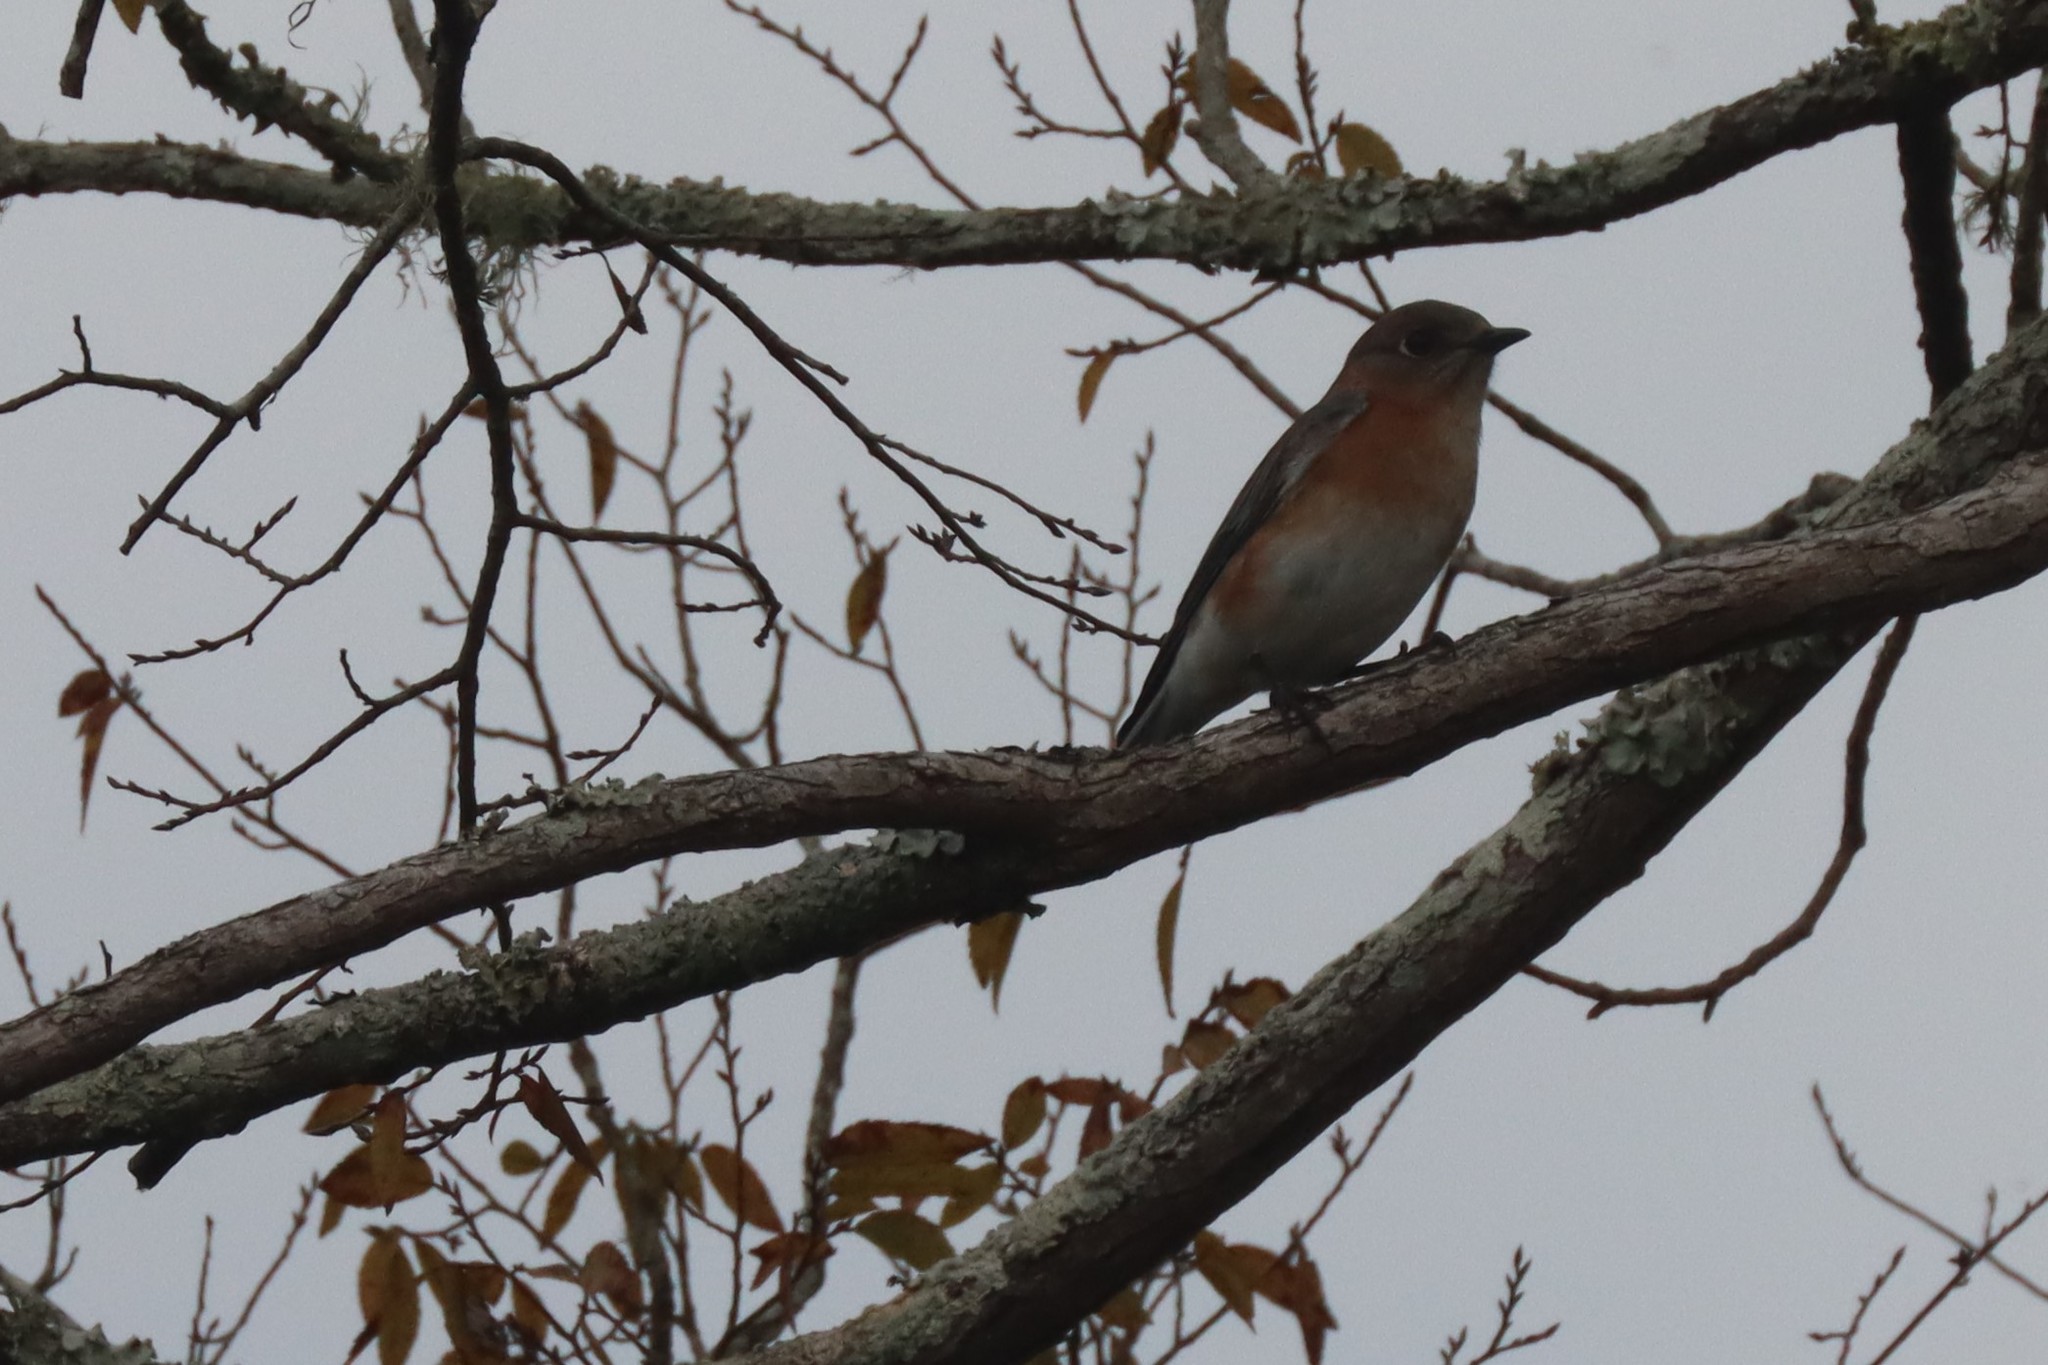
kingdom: Animalia
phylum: Chordata
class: Aves
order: Passeriformes
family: Turdidae
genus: Sialia
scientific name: Sialia sialis
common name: Eastern bluebird
